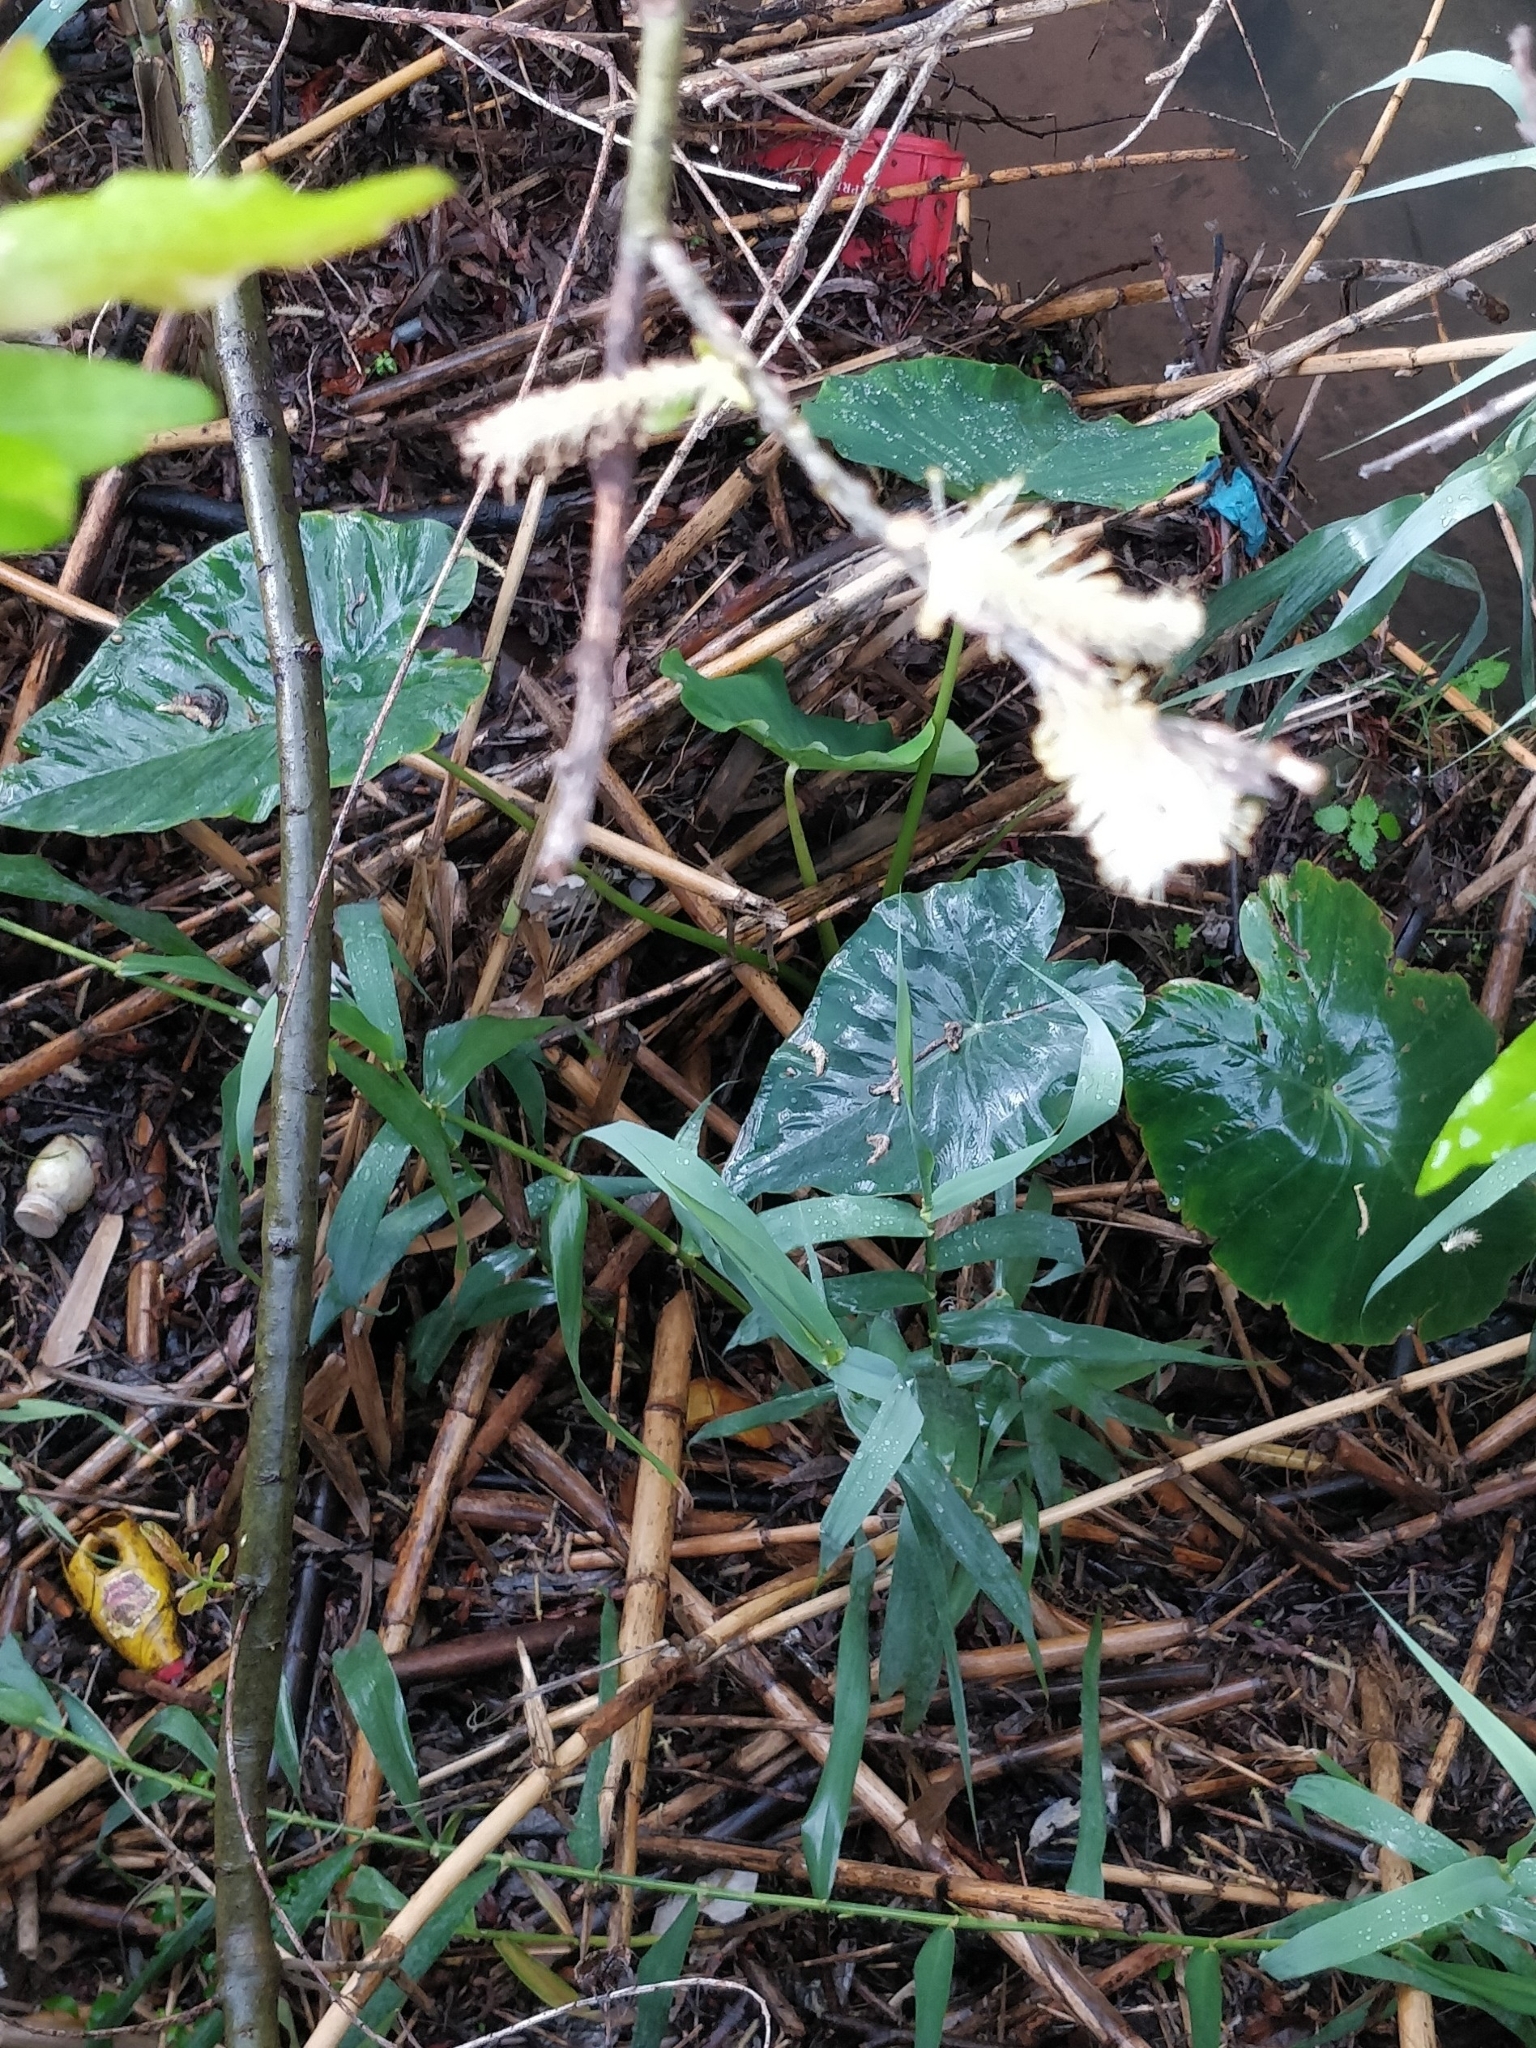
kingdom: Plantae
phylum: Tracheophyta
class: Liliopsida
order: Alismatales
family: Araceae
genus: Colocasia
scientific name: Colocasia esculenta
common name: Taro
